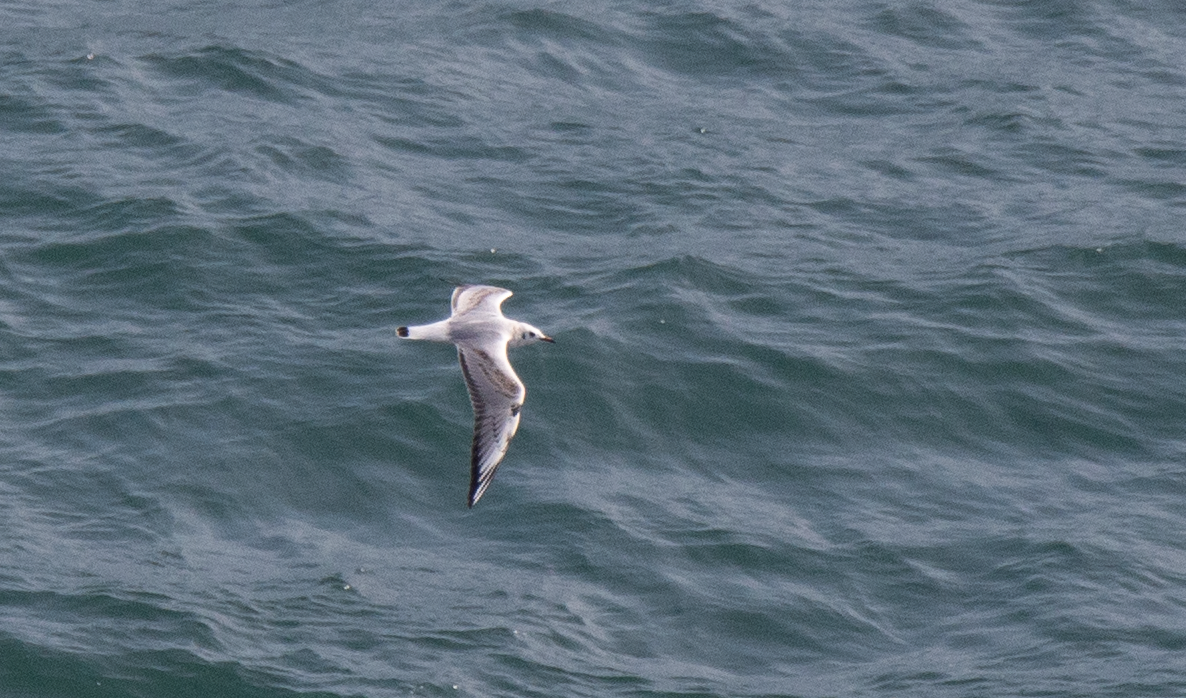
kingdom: Animalia
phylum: Chordata
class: Aves
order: Charadriiformes
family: Laridae
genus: Chroicocephalus
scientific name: Chroicocephalus ridibundus
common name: Black-headed gull
